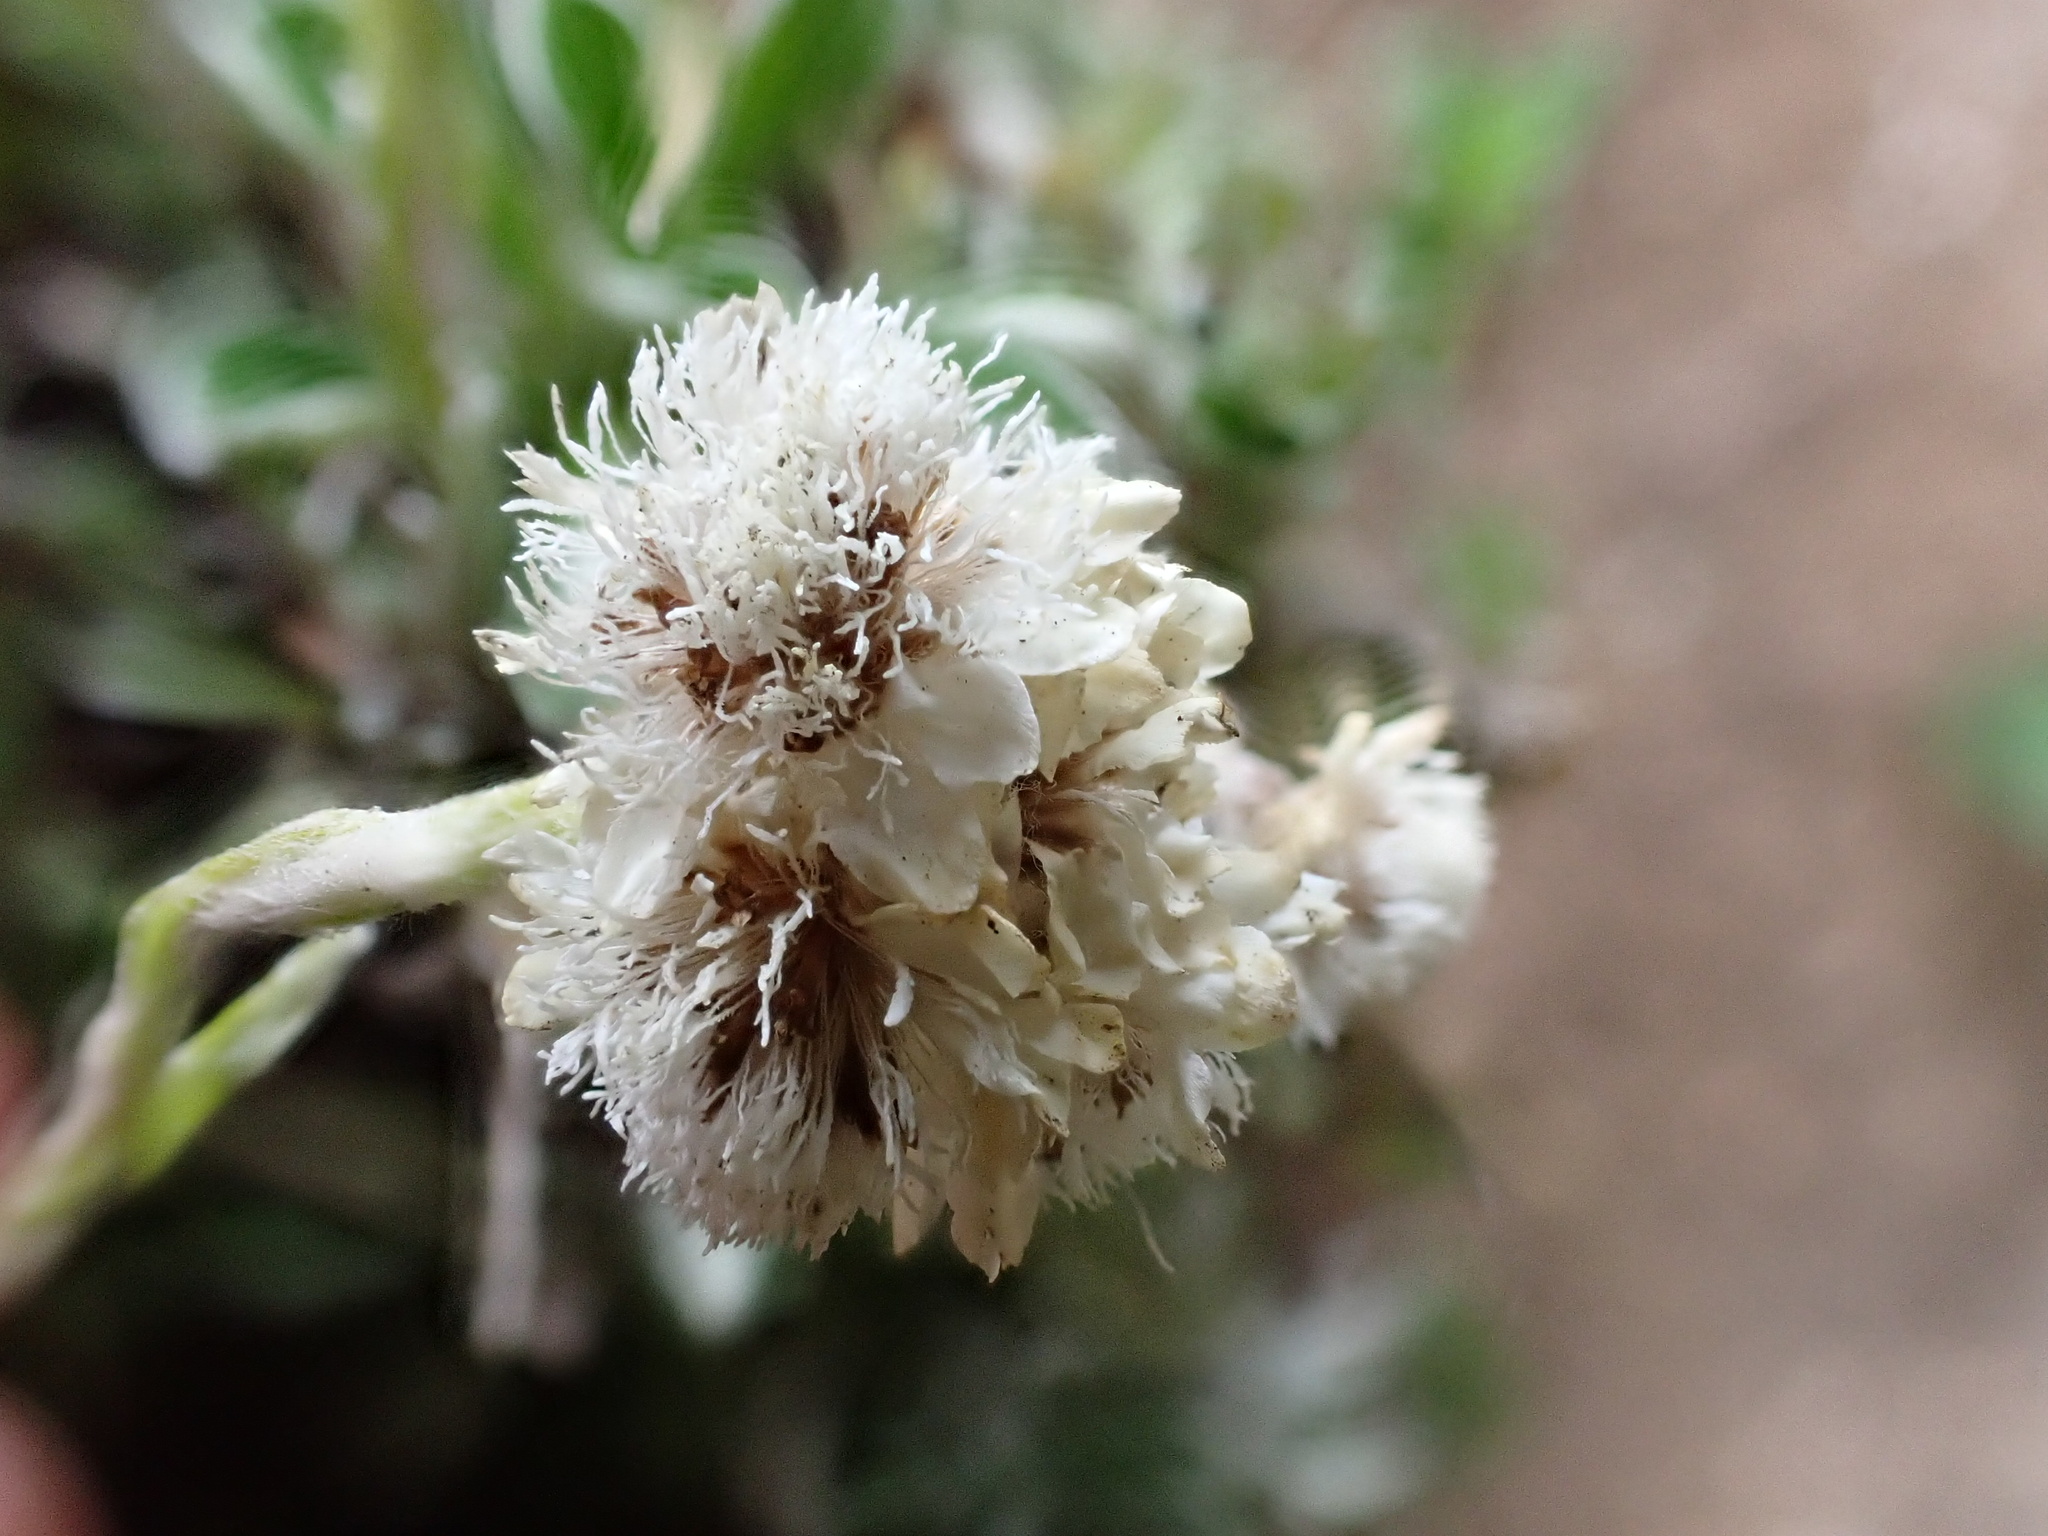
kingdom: Plantae
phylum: Tracheophyta
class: Magnoliopsida
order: Asterales
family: Asteraceae
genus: Antennaria
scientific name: Antennaria dioica
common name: Mountain everlasting
